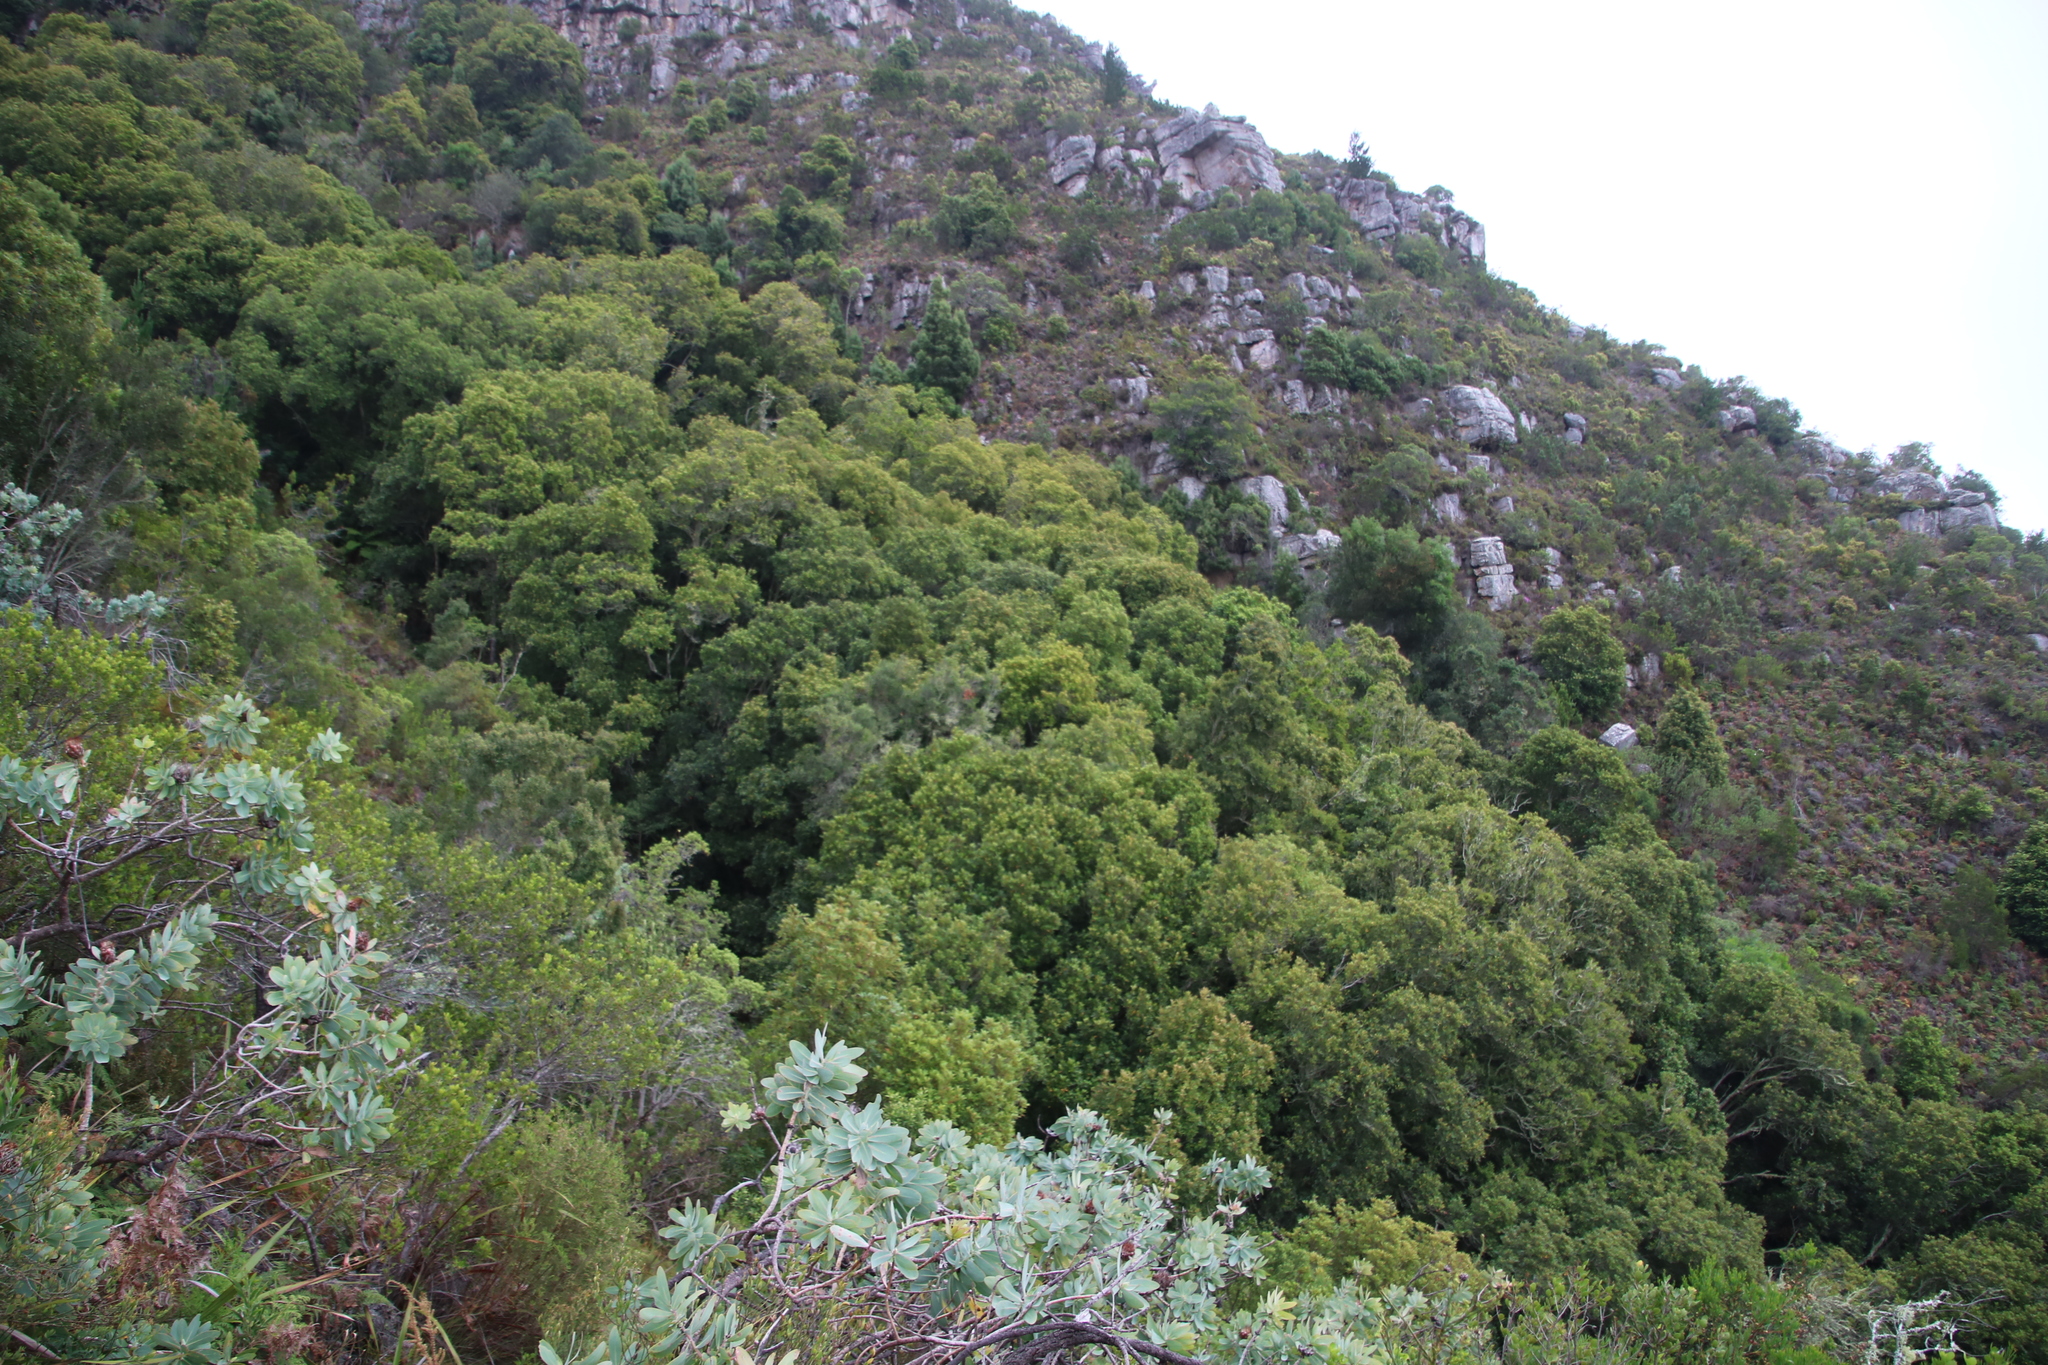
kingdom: Plantae
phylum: Tracheophyta
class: Magnoliopsida
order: Oxalidales
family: Cunoniaceae
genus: Cunonia
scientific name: Cunonia capensis
